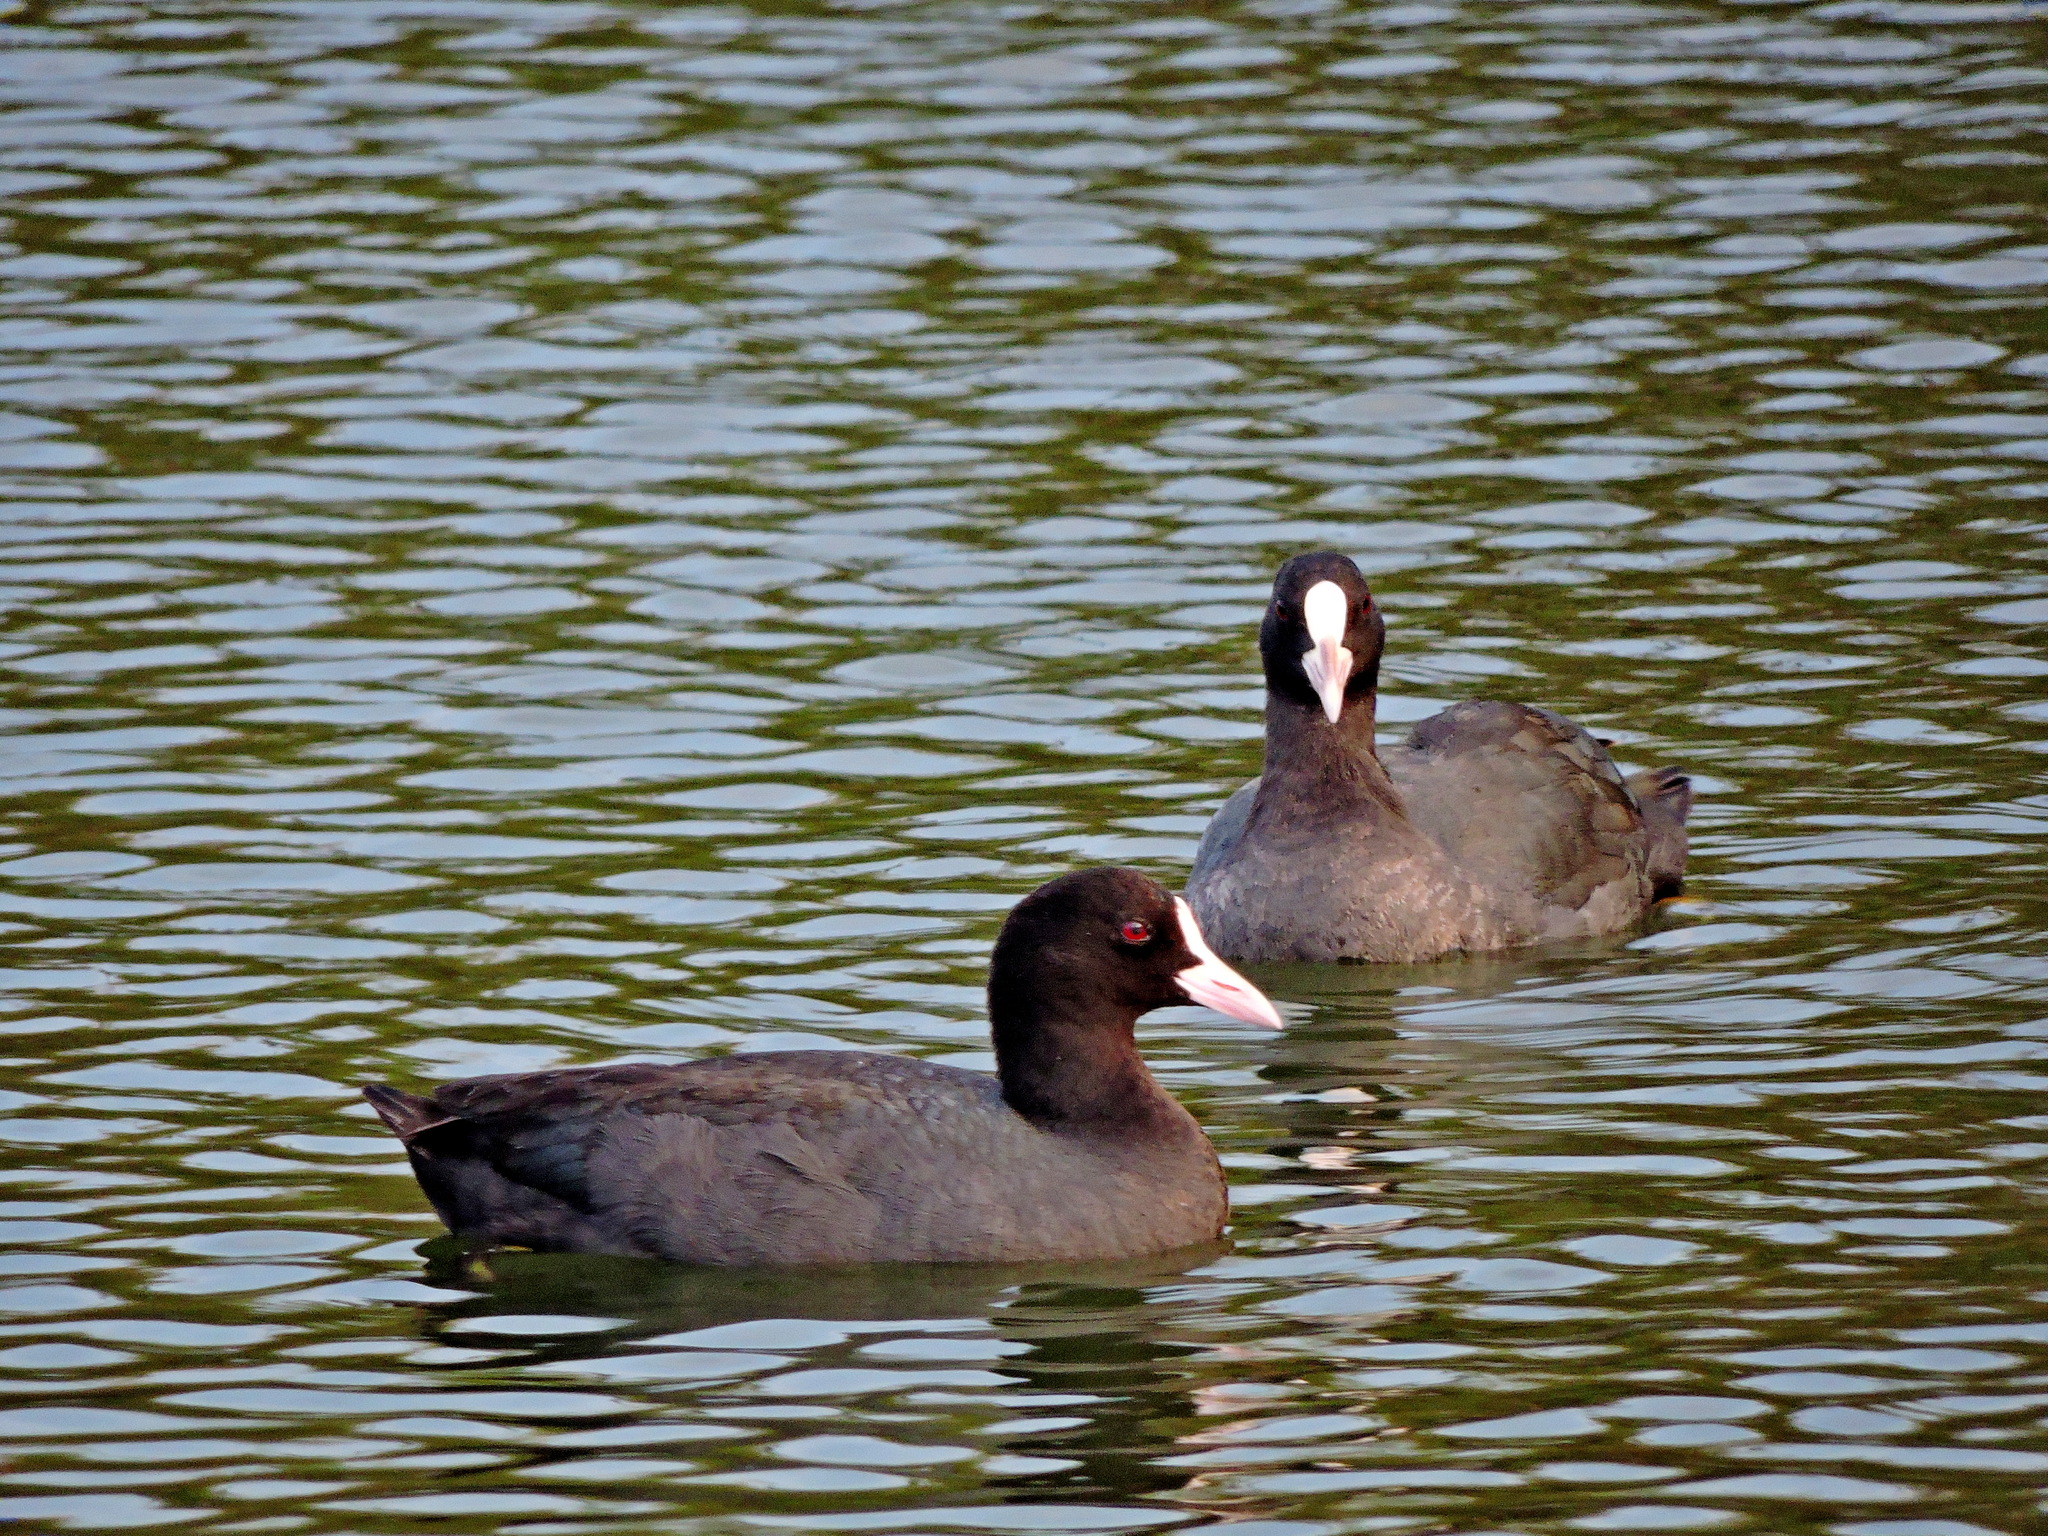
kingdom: Animalia
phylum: Chordata
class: Aves
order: Gruiformes
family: Rallidae
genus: Fulica
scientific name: Fulica atra
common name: Eurasian coot
